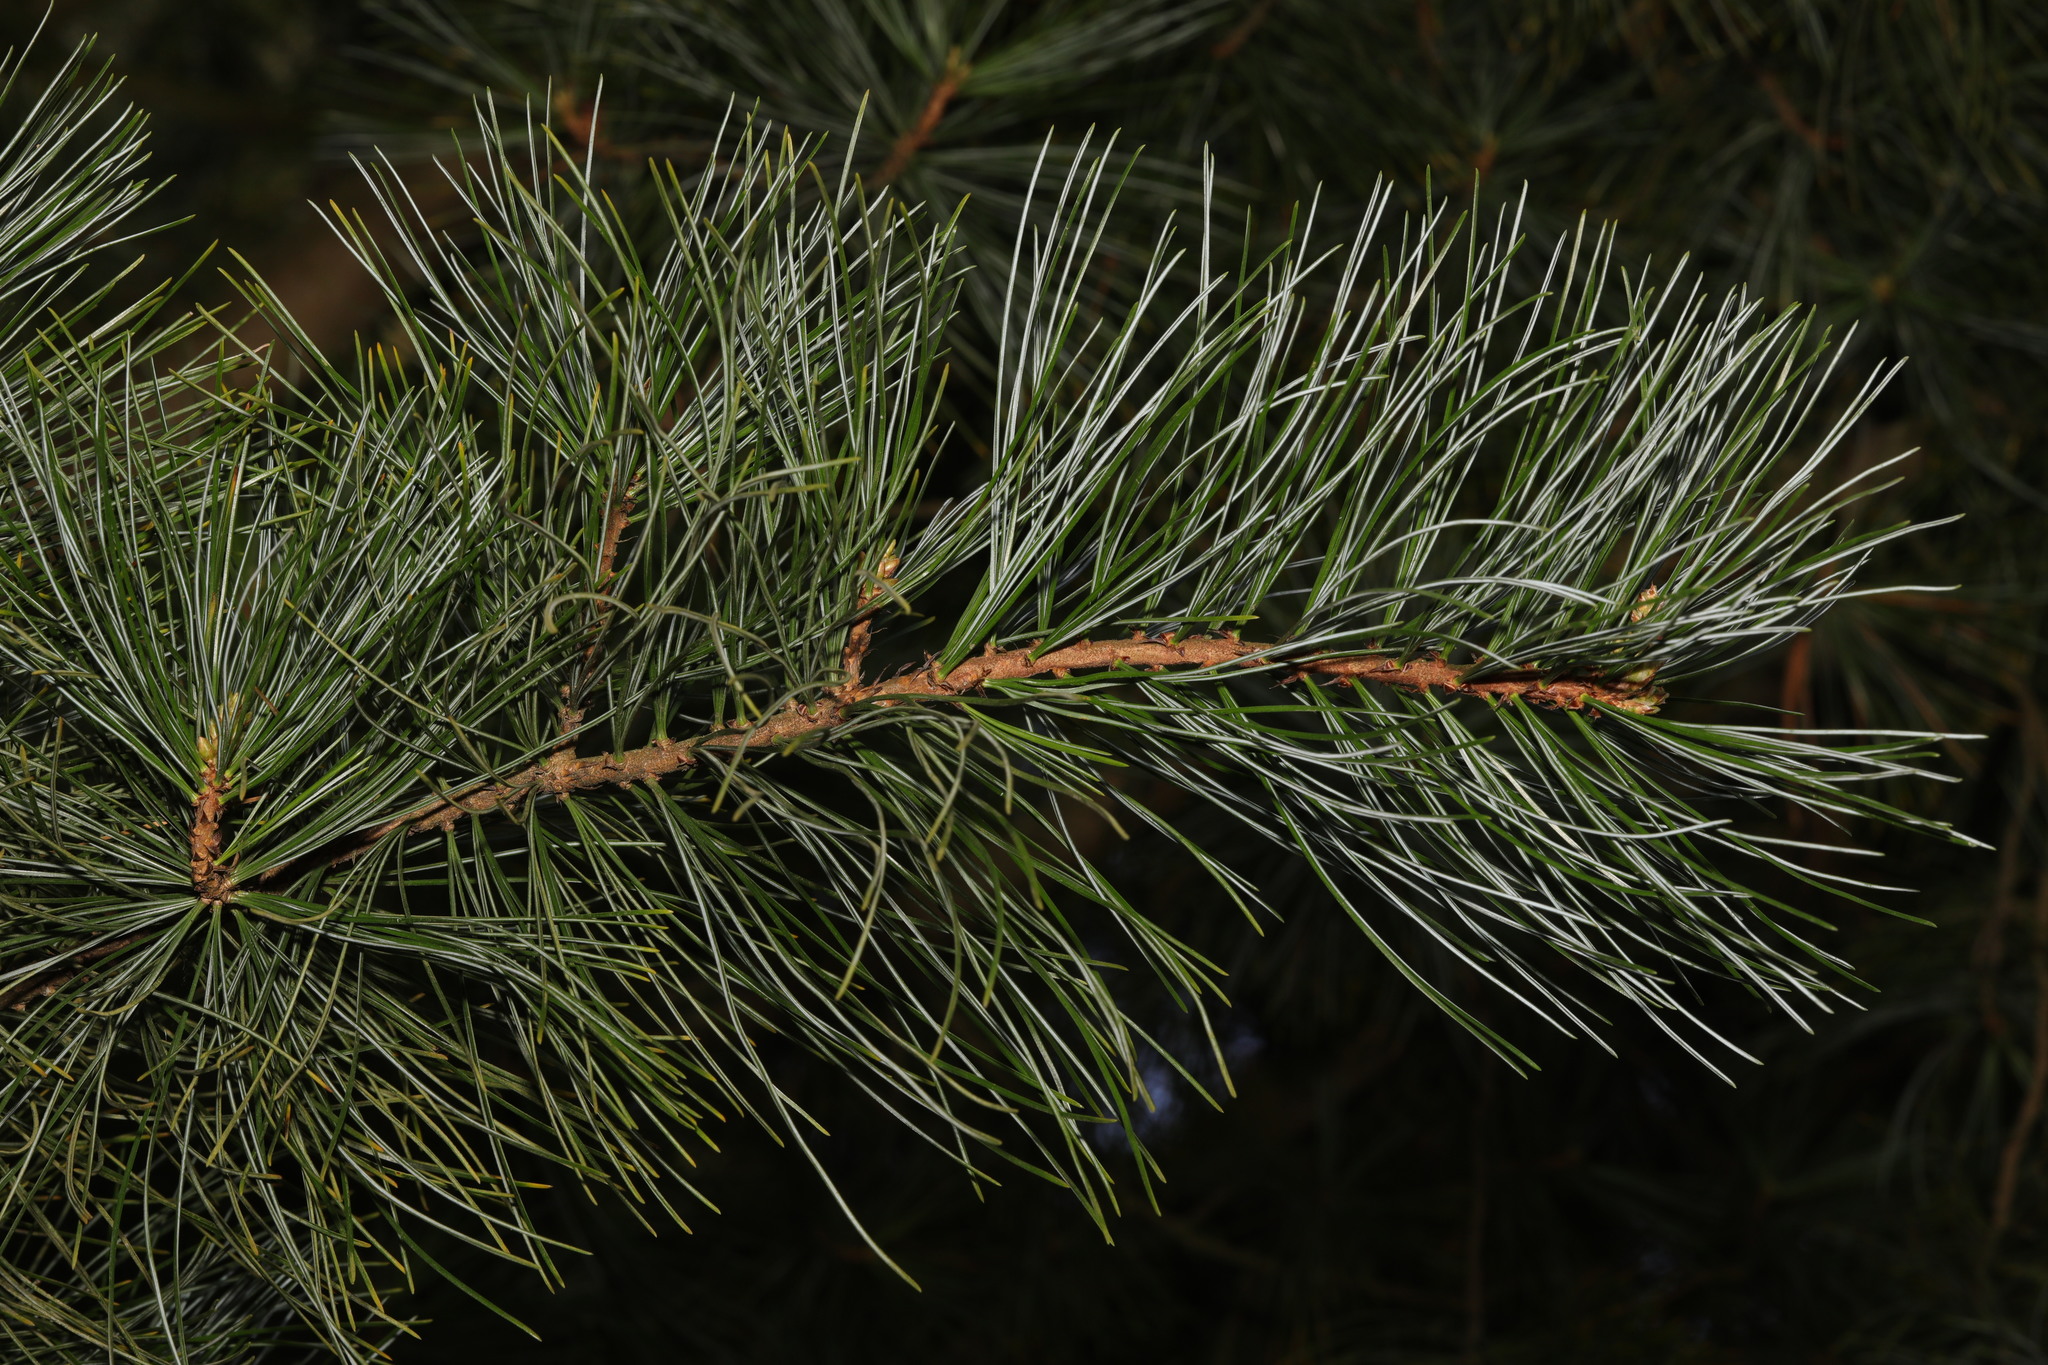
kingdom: Plantae
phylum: Tracheophyta
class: Pinopsida
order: Pinales
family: Pinaceae
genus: Pinus
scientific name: Pinus sylvestris
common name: Scots pine
